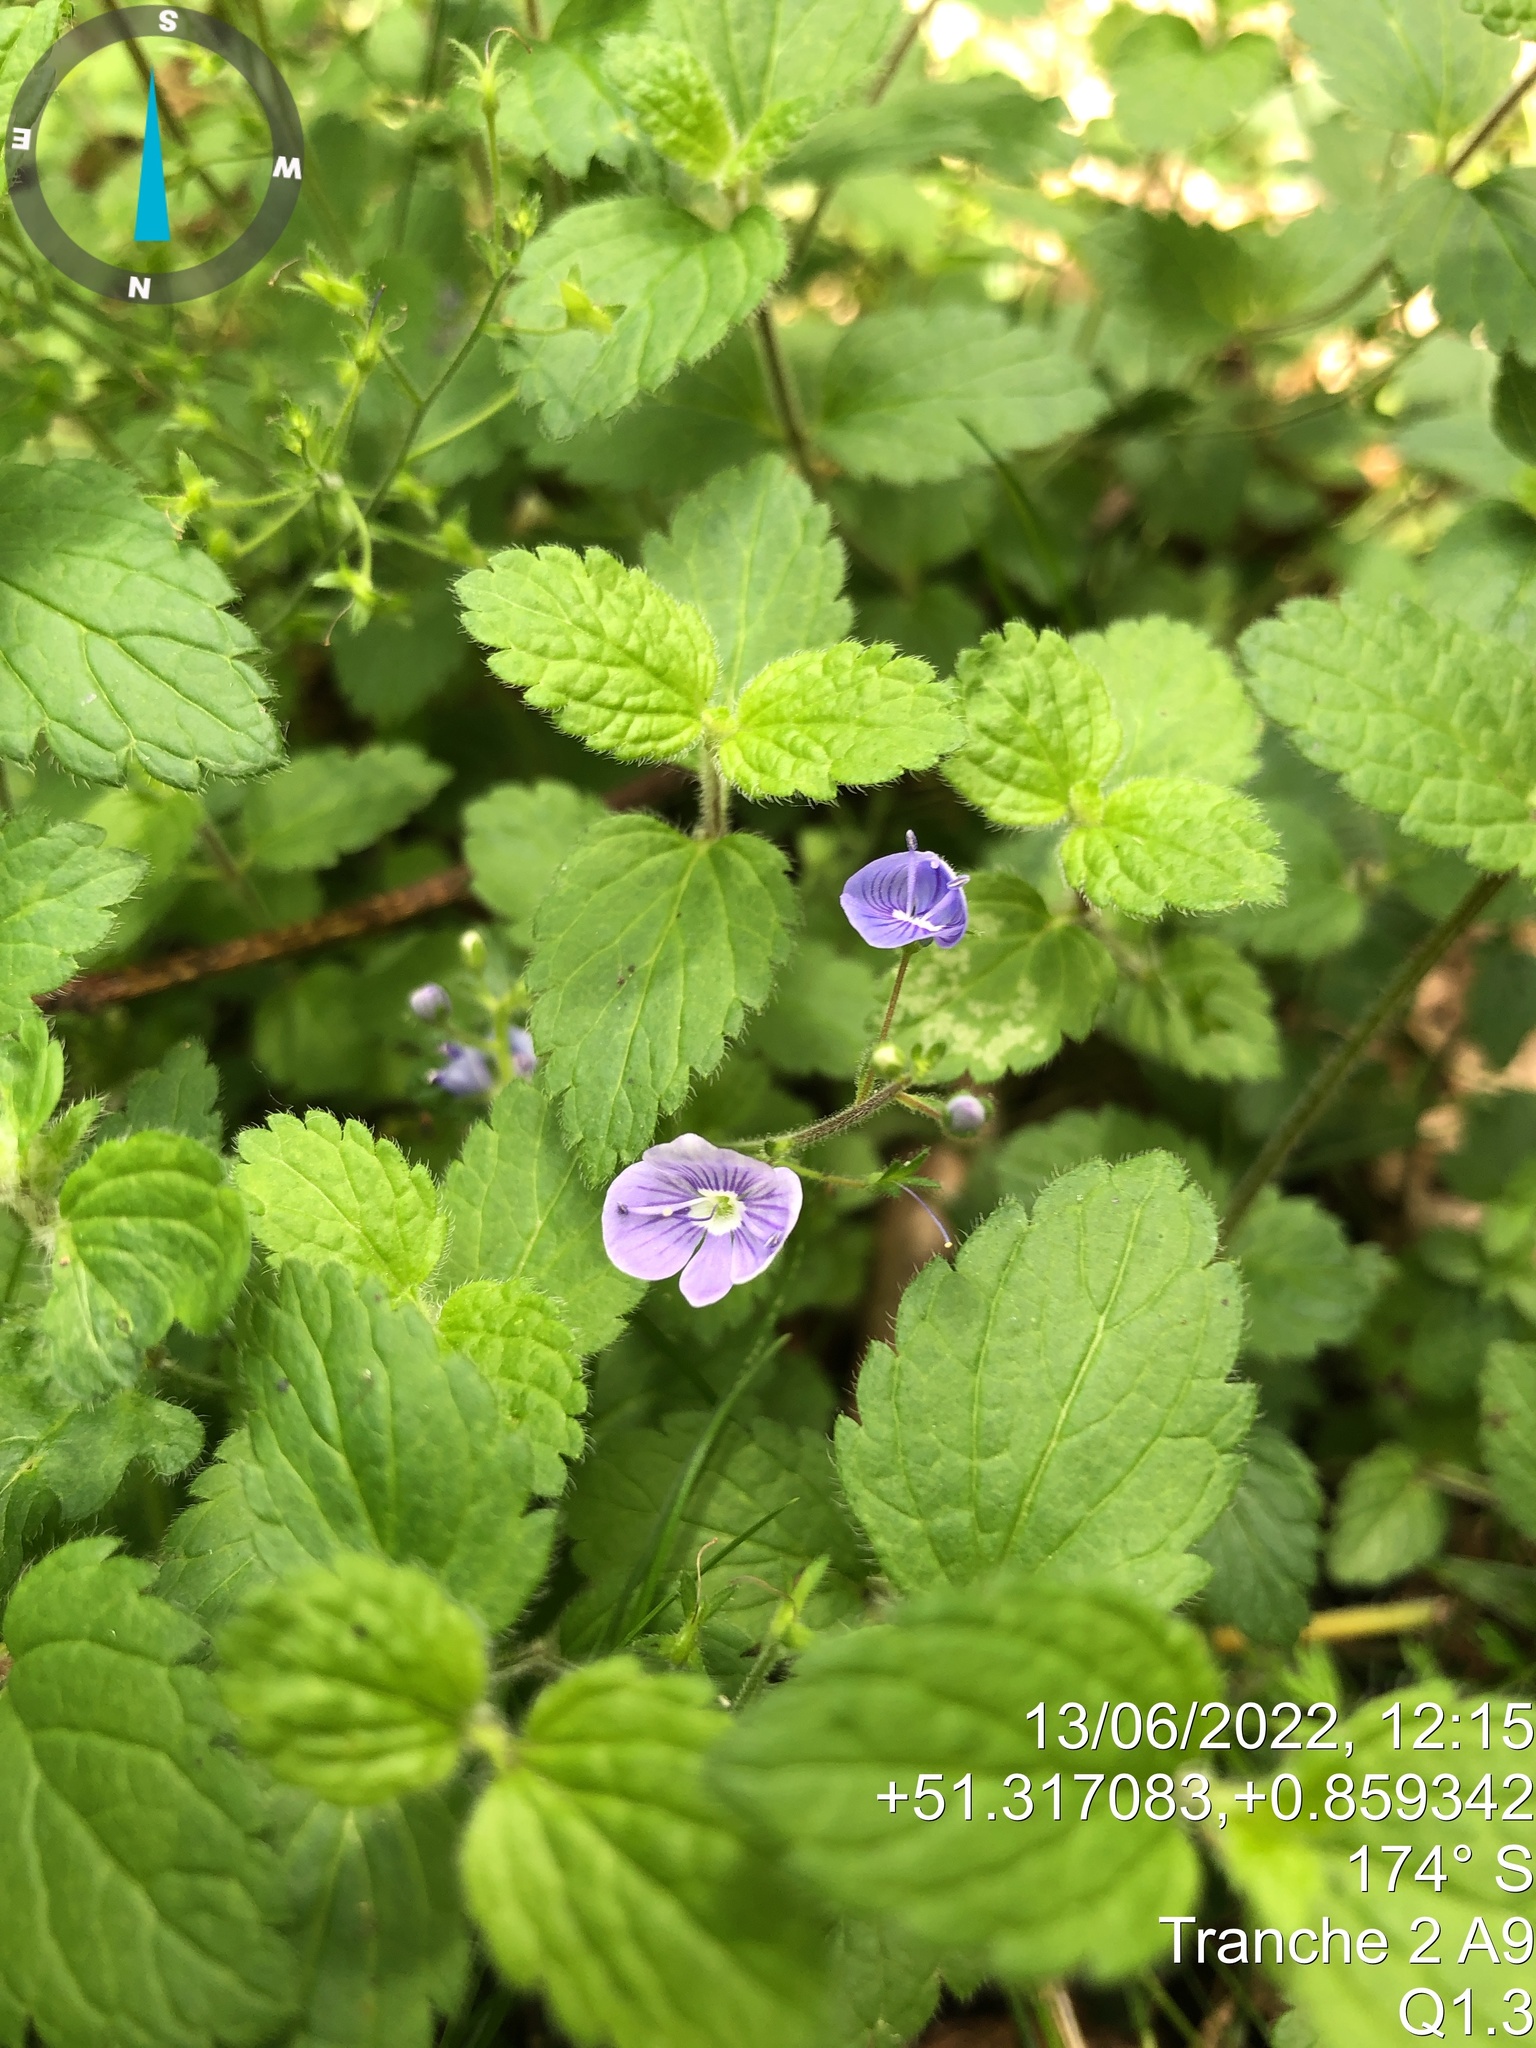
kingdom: Plantae
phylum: Tracheophyta
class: Magnoliopsida
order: Lamiales
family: Plantaginaceae
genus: Veronica
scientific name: Veronica chamaedrys
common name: Germander speedwell
